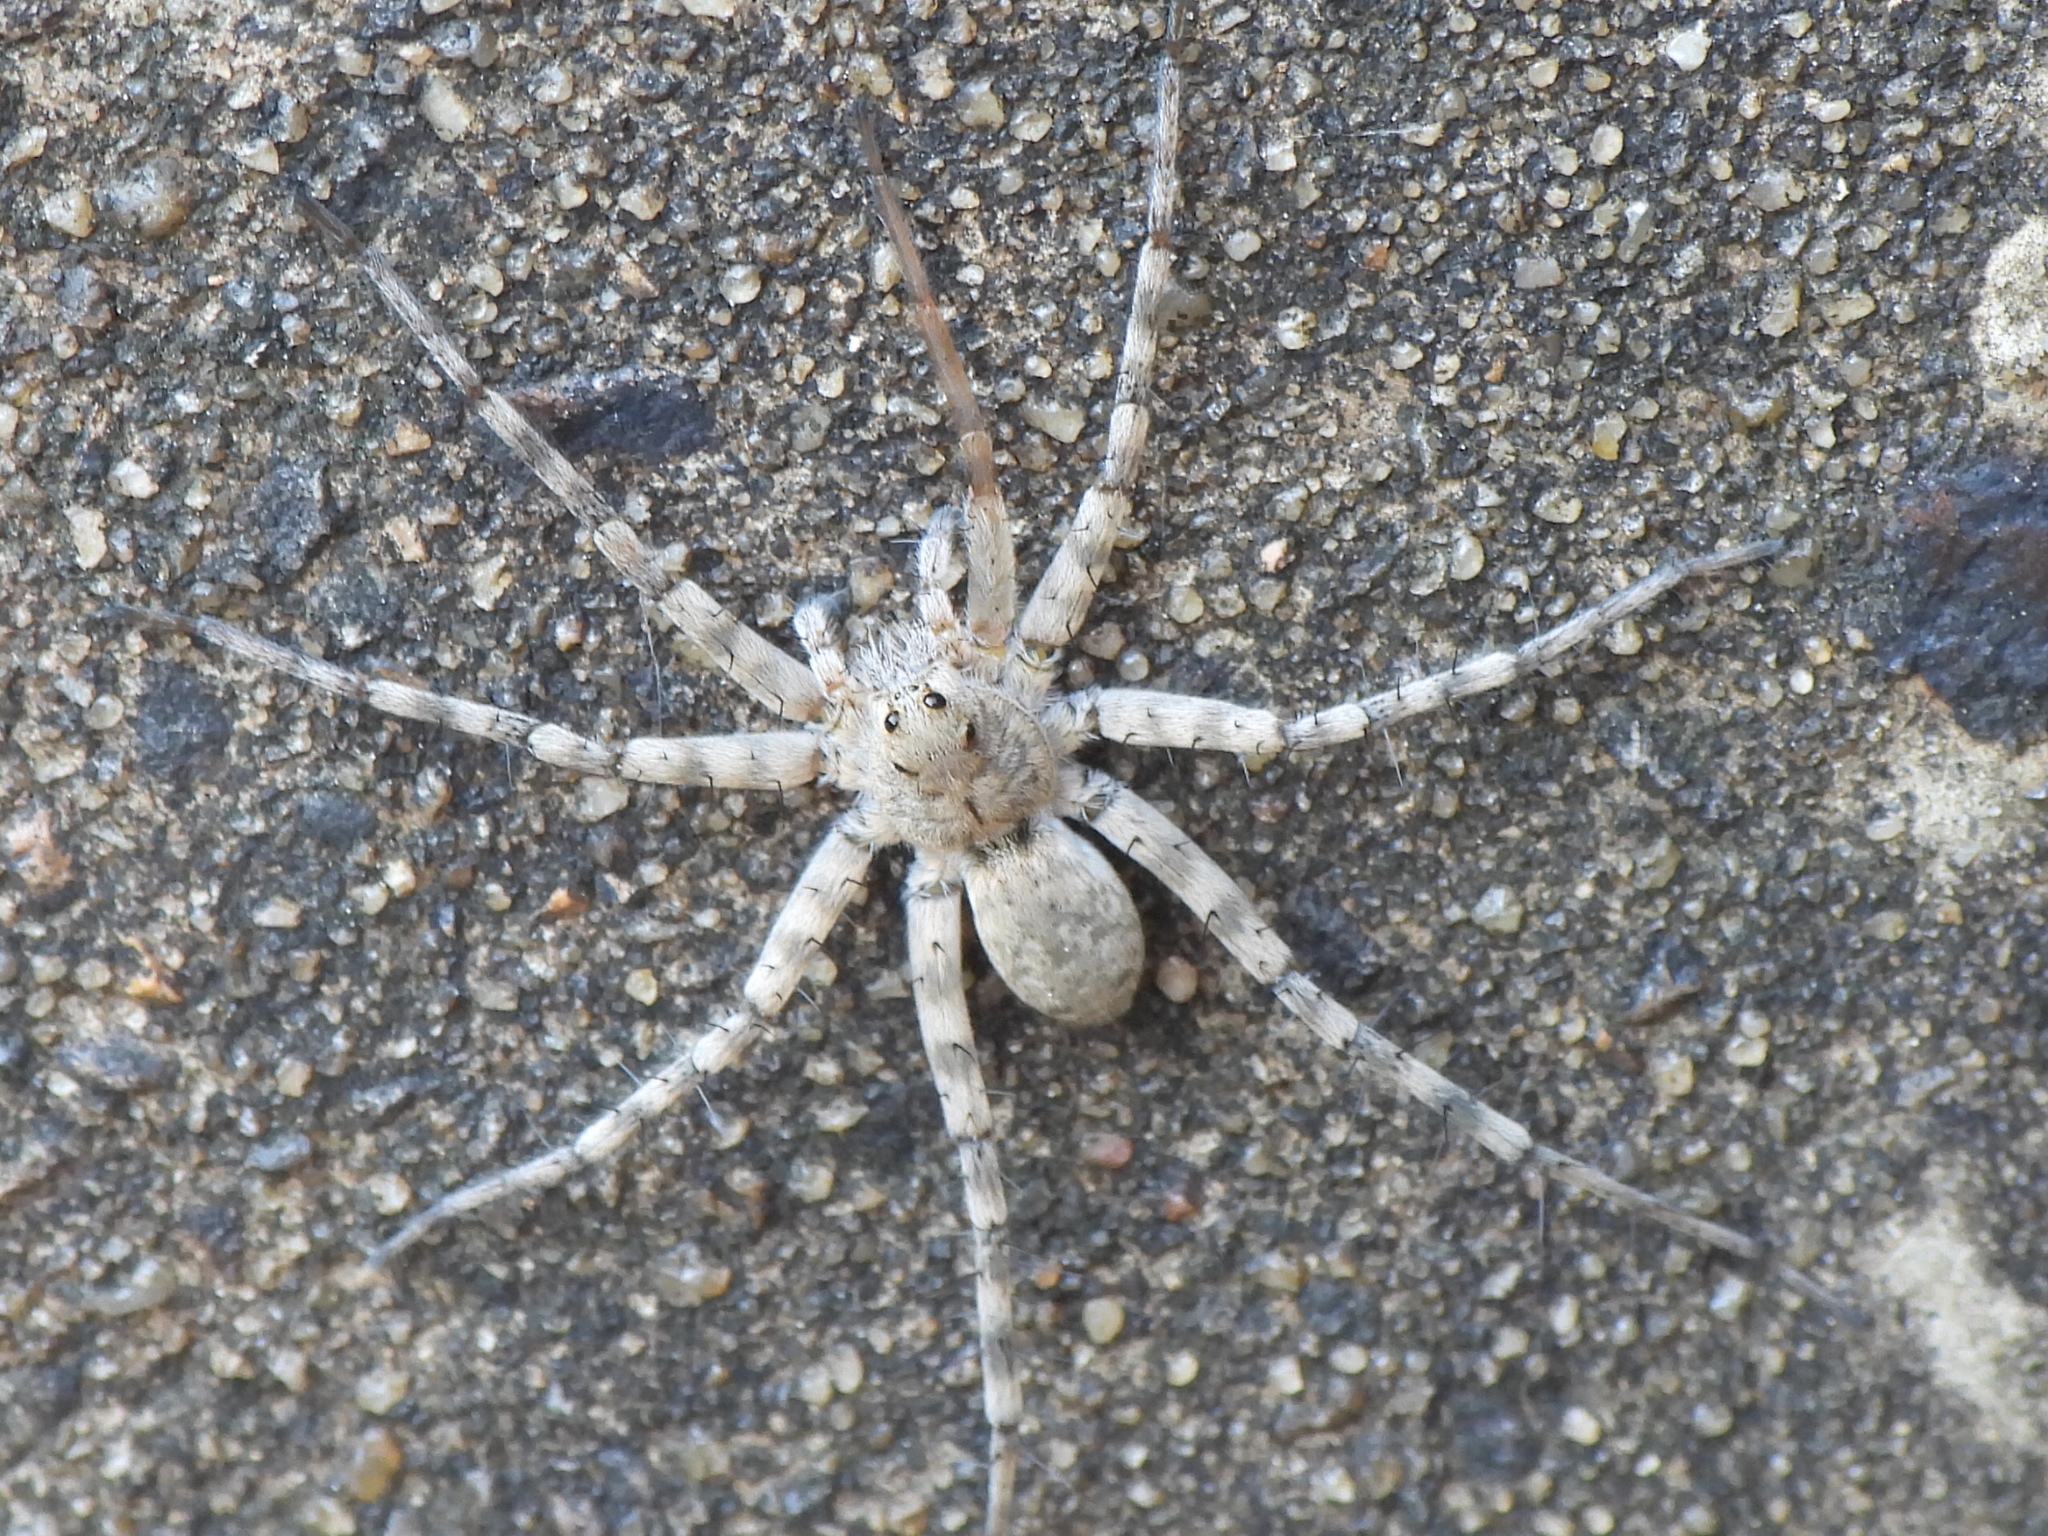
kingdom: Animalia
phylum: Arthropoda
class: Arachnida
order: Araneae
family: Lycosidae
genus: Pardosa
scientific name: Pardosa mercurialis
